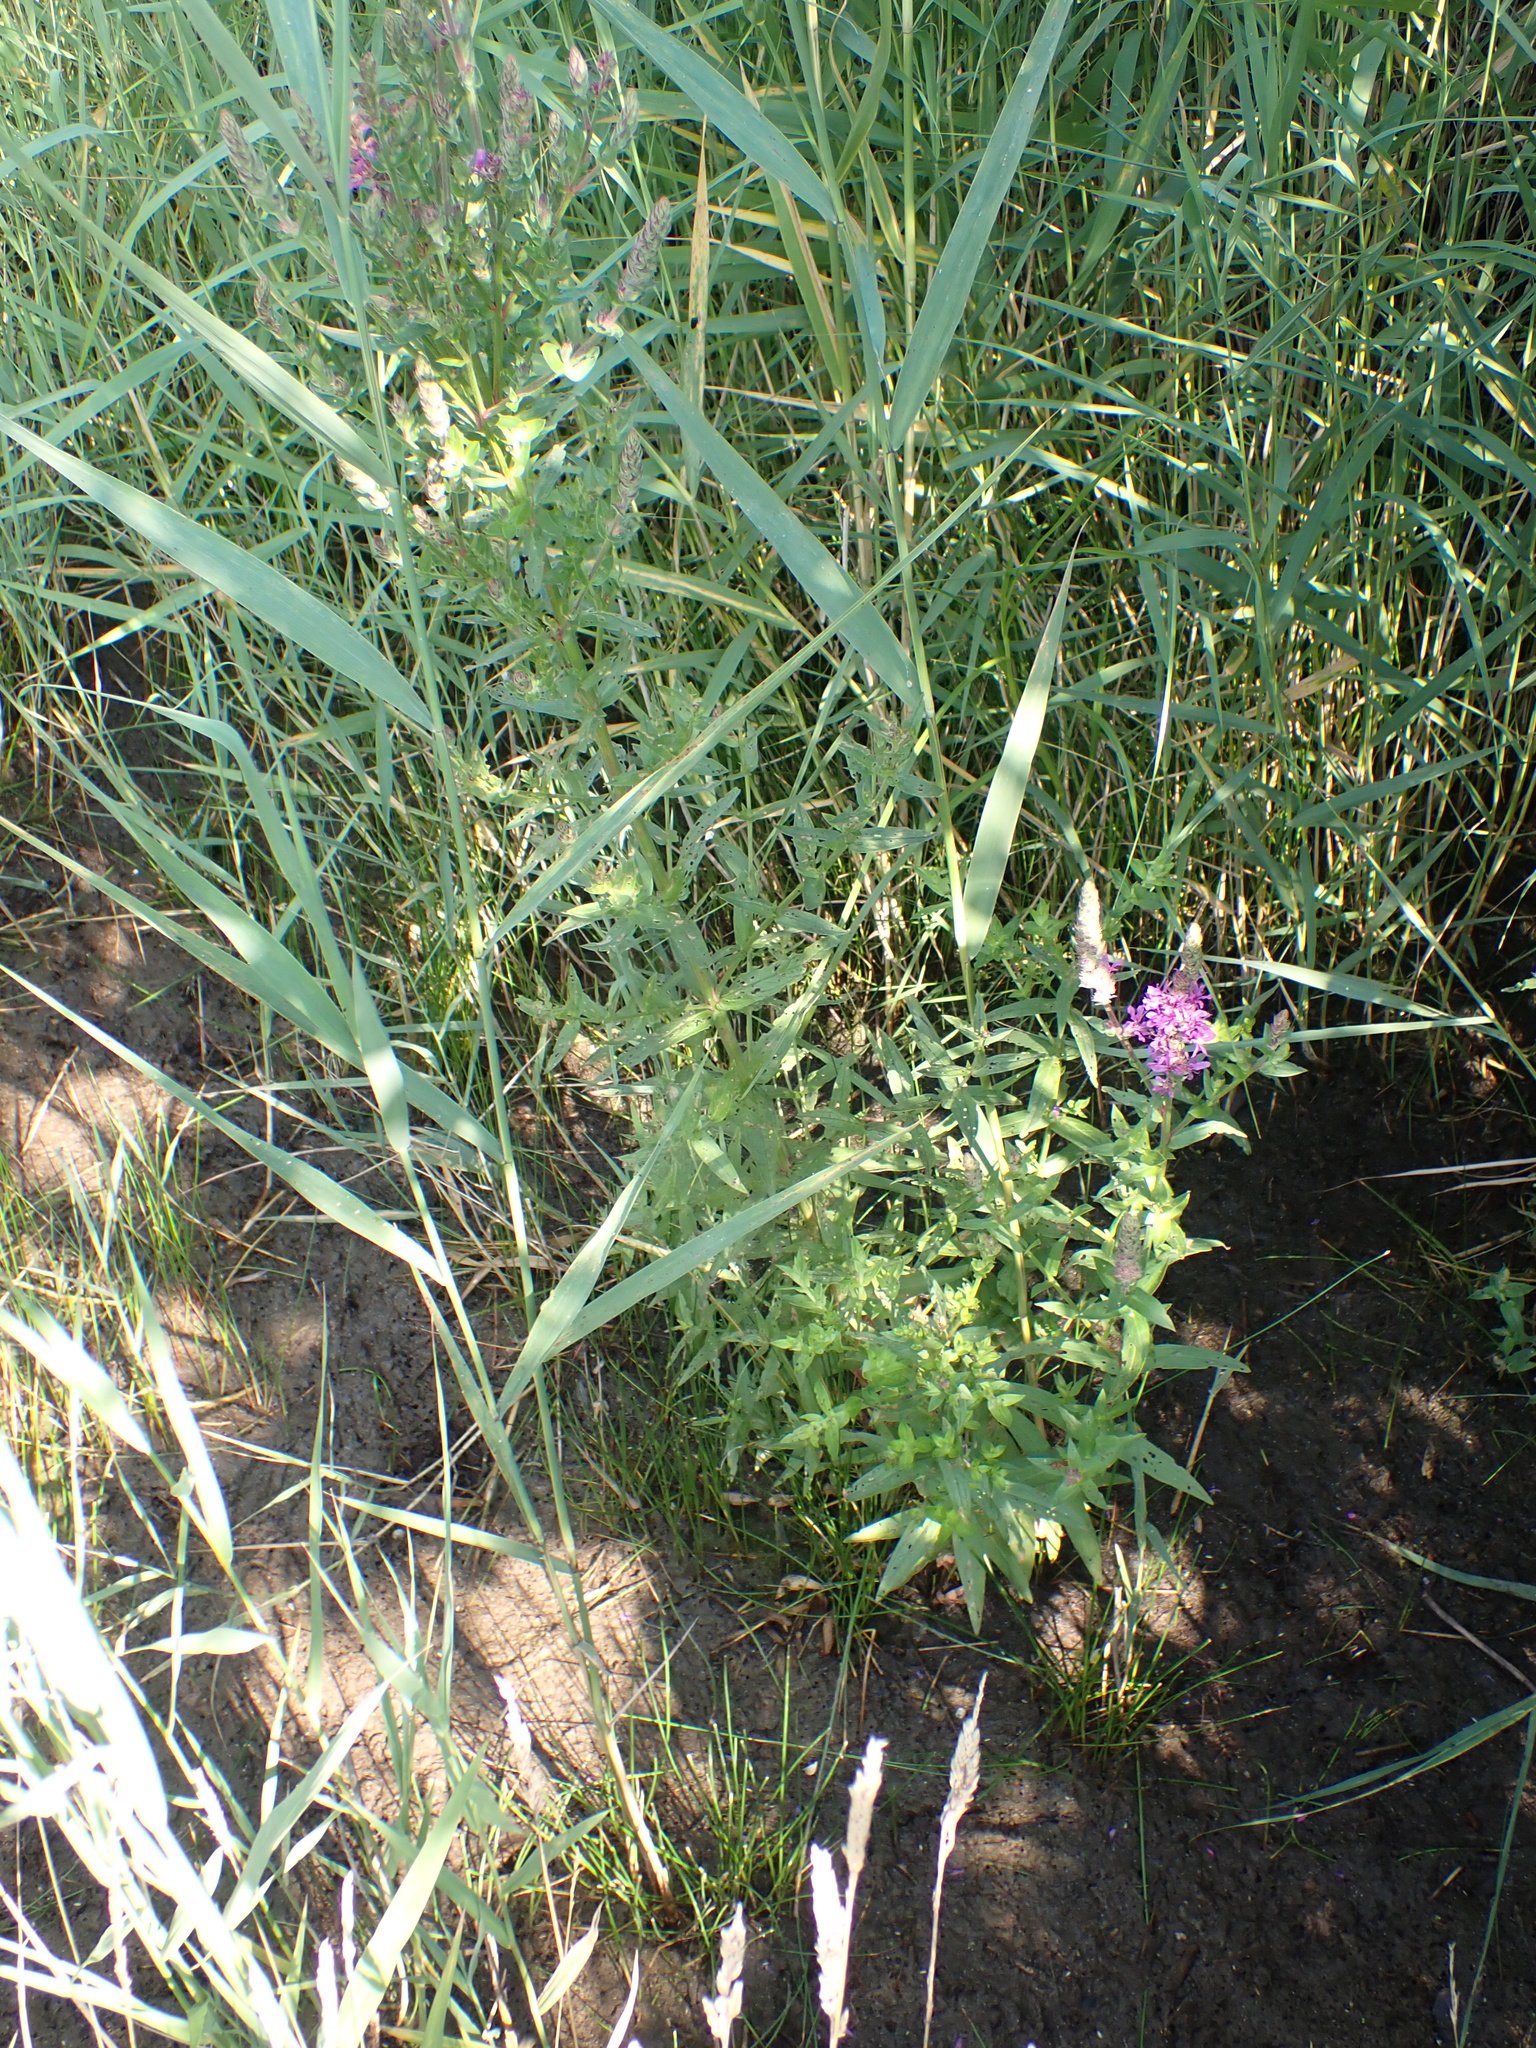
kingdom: Plantae
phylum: Tracheophyta
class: Magnoliopsida
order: Myrtales
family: Lythraceae
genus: Lythrum
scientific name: Lythrum salicaria
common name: Purple loosestrife
